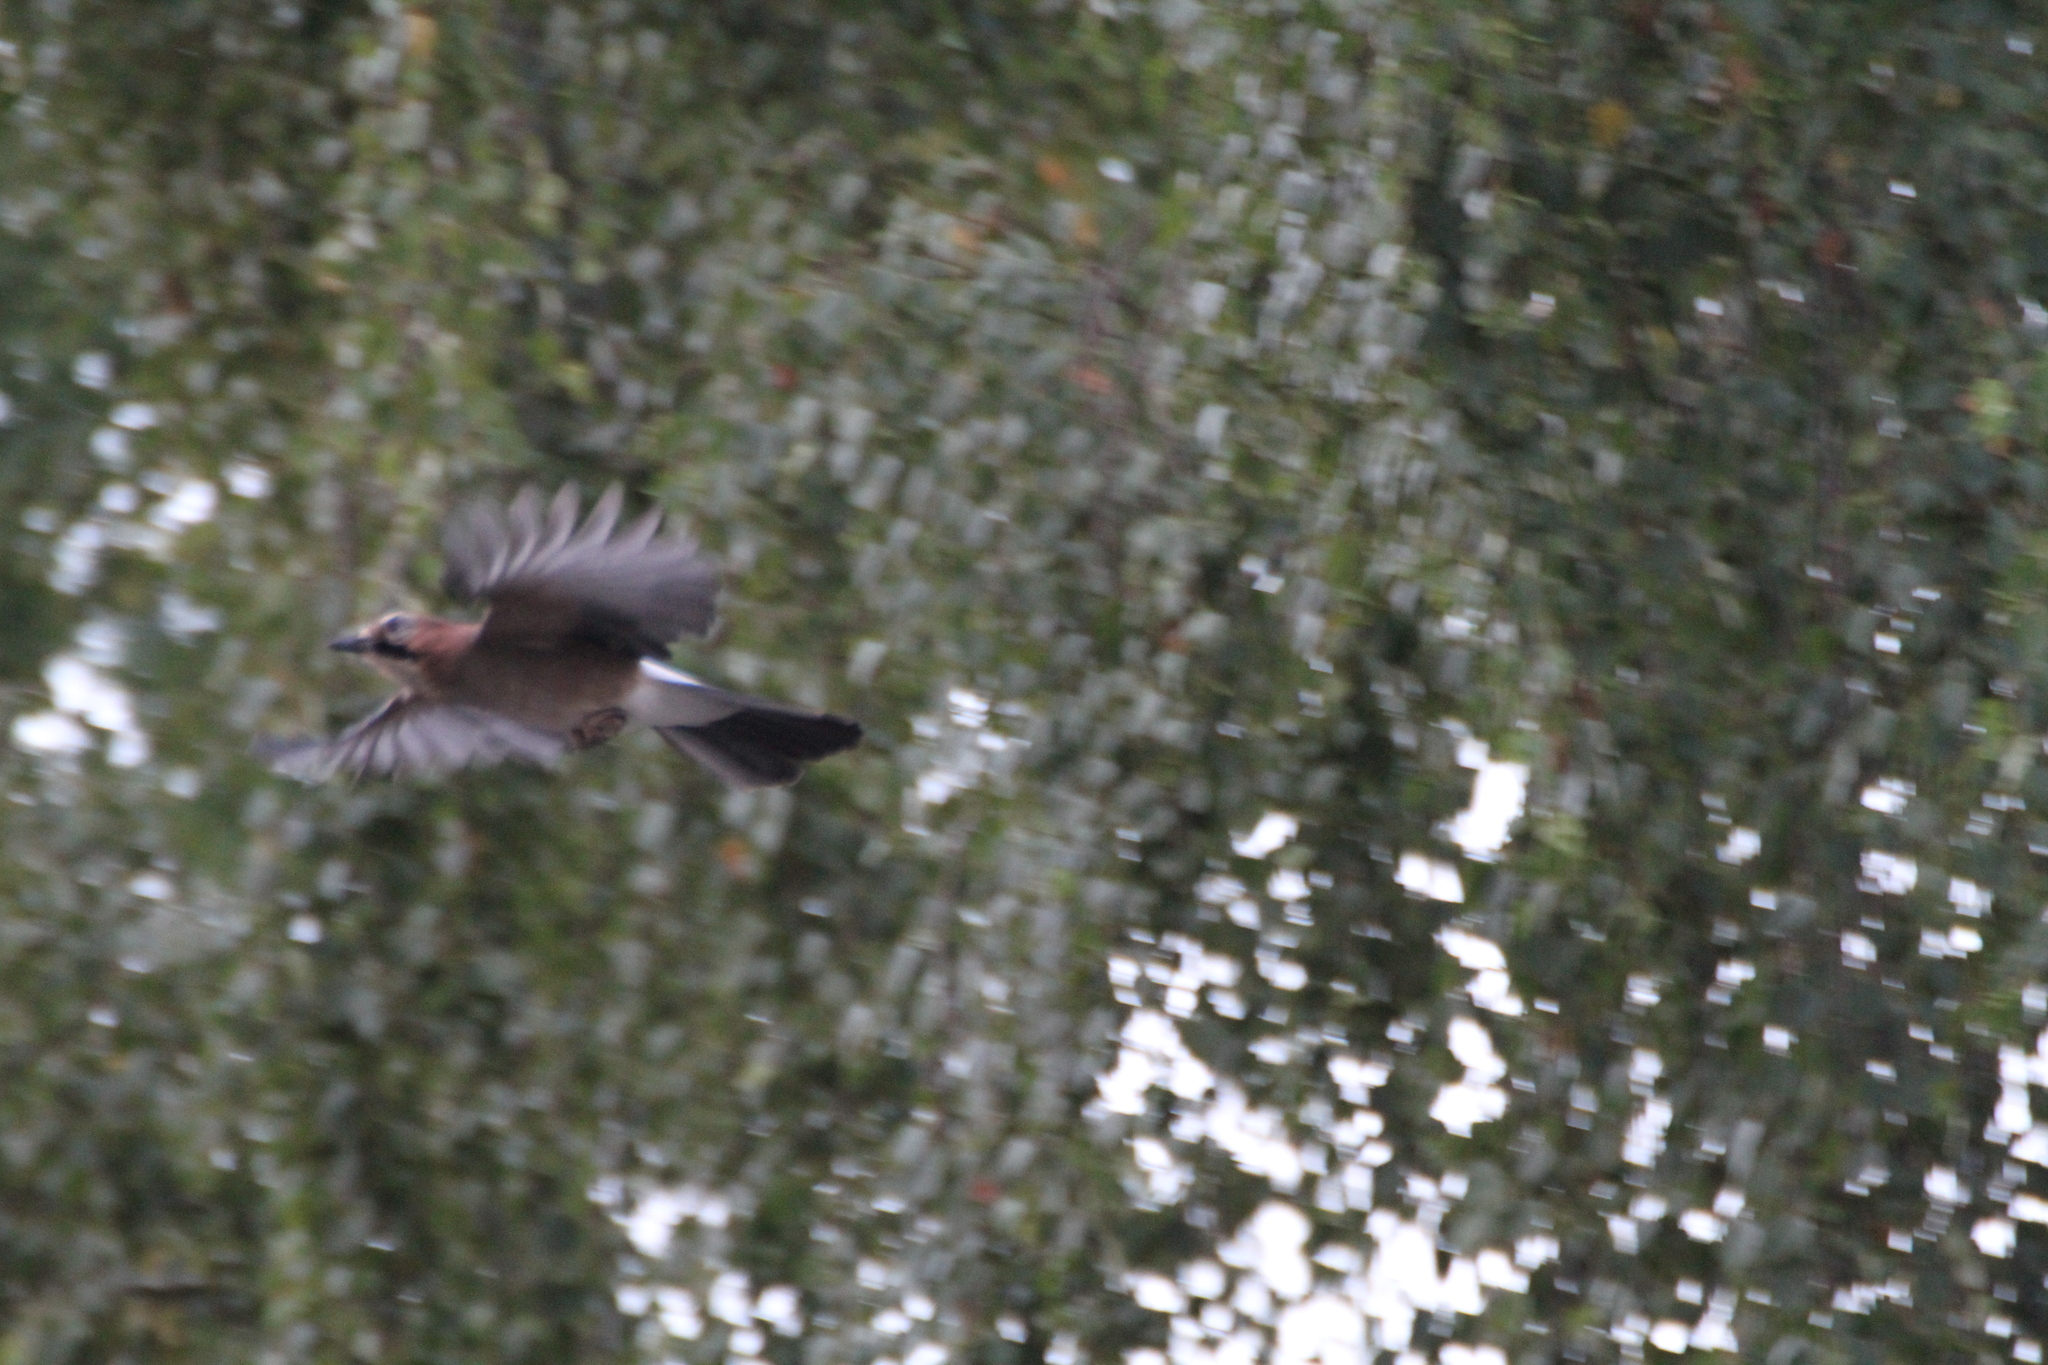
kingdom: Animalia
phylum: Chordata
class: Aves
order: Passeriformes
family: Corvidae
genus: Garrulus
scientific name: Garrulus glandarius
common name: Eurasian jay
